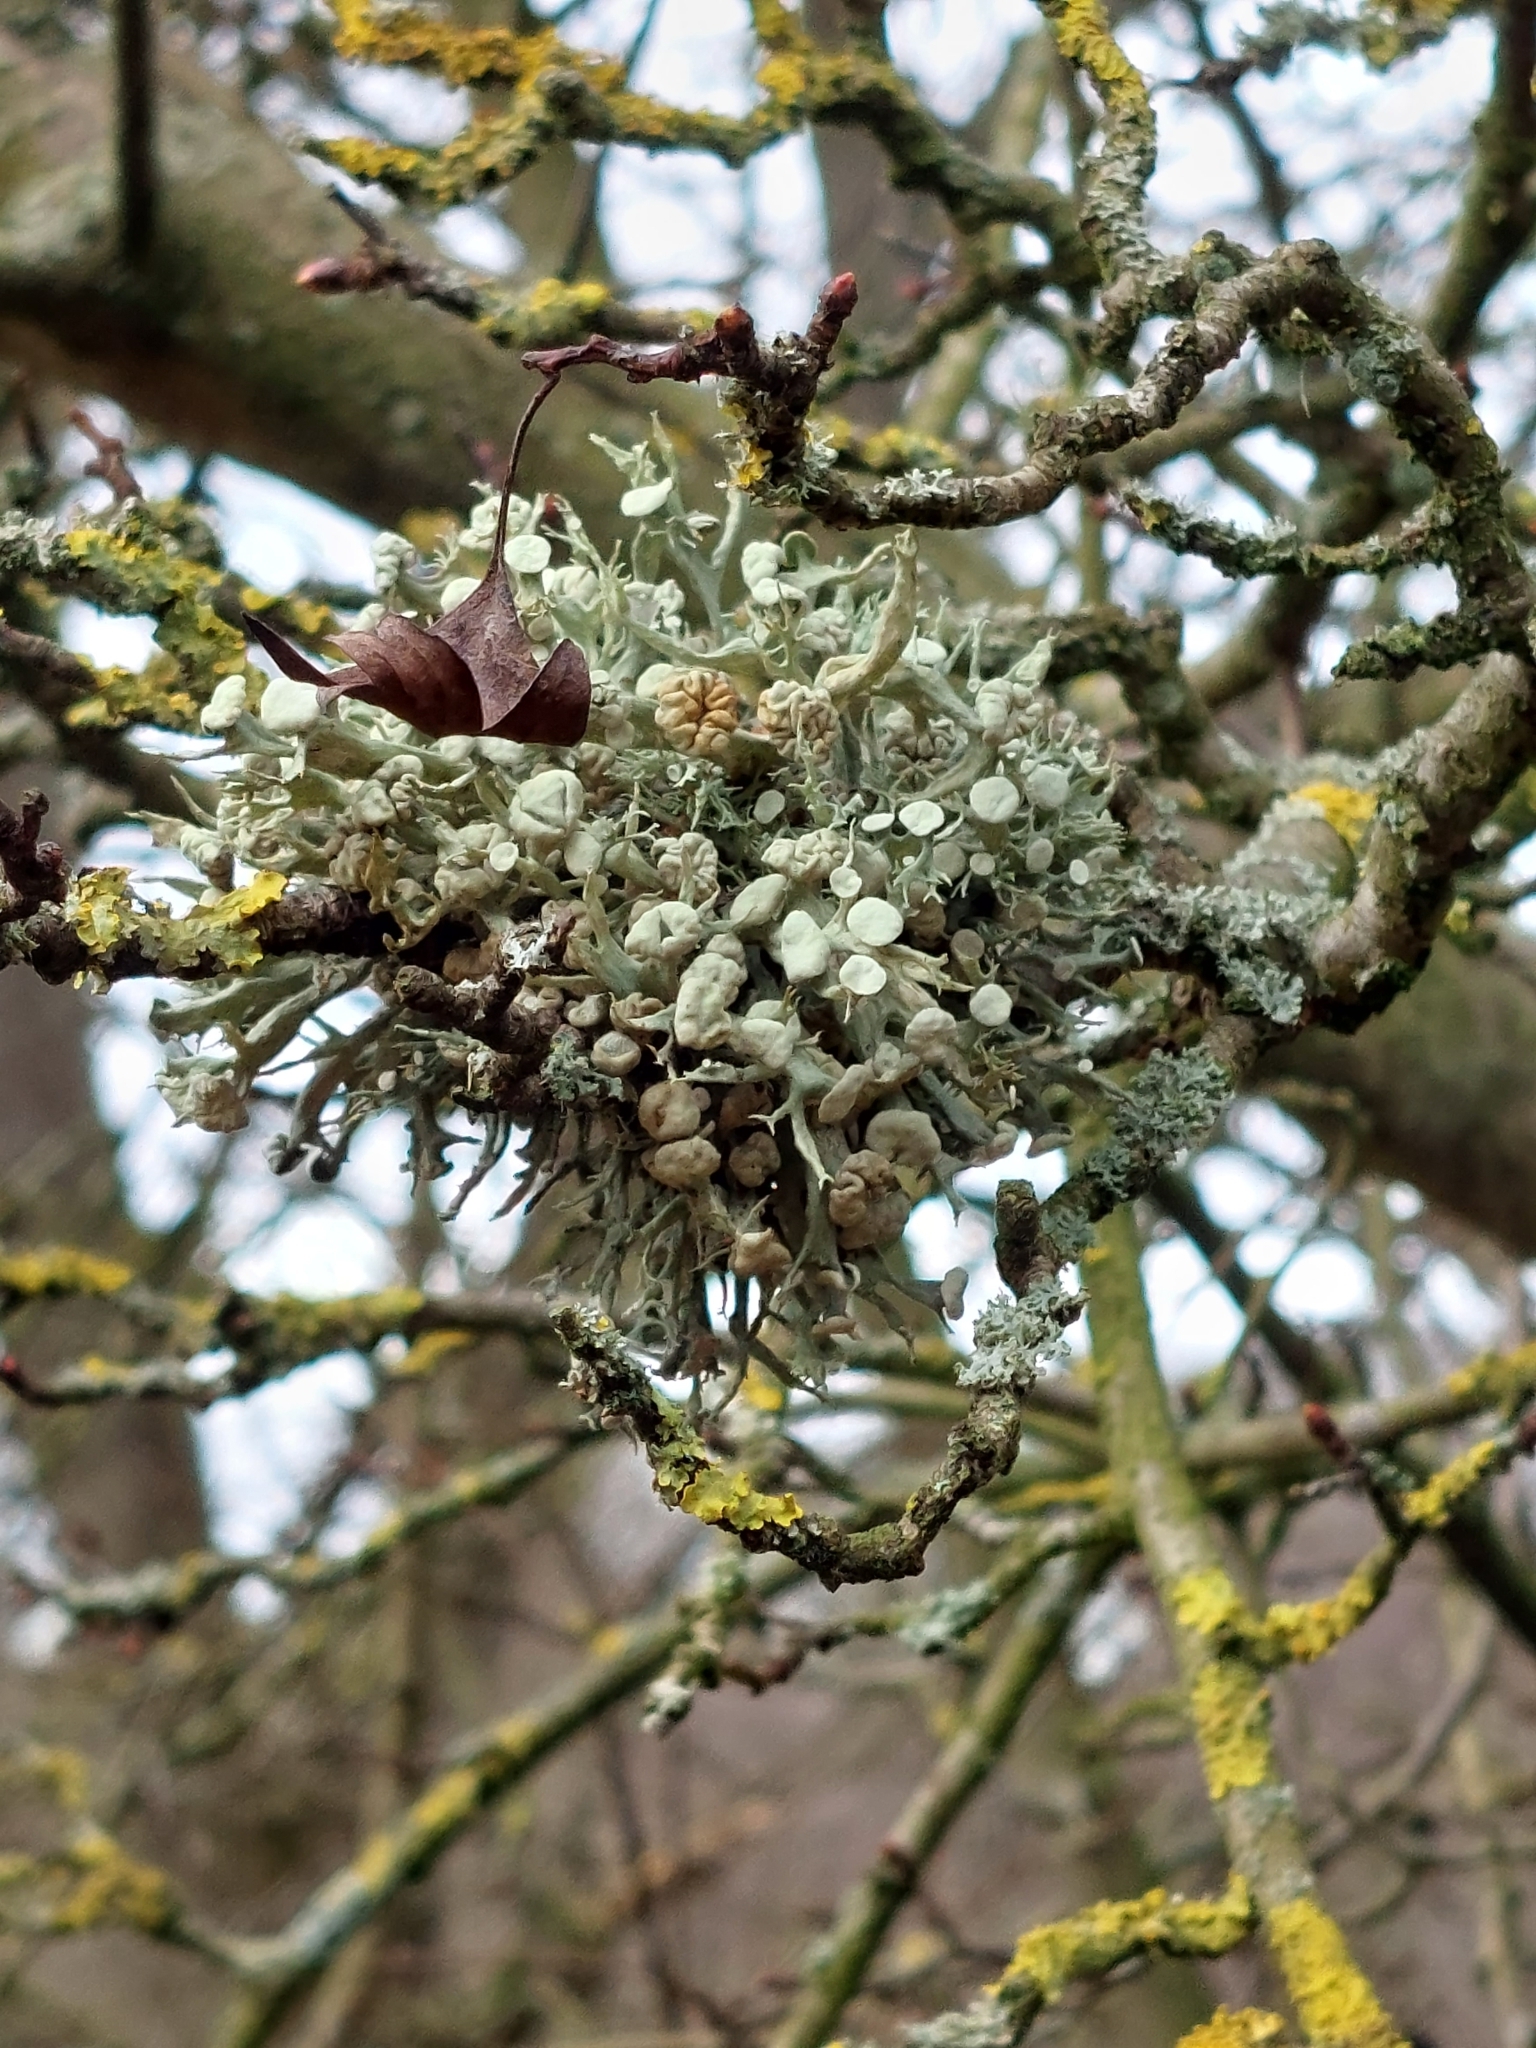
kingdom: Fungi
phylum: Ascomycota
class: Lecanoromycetes
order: Lecanorales
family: Ramalinaceae
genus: Ramalina
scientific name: Ramalina fastigiata
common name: Dotted ribbon lichen
